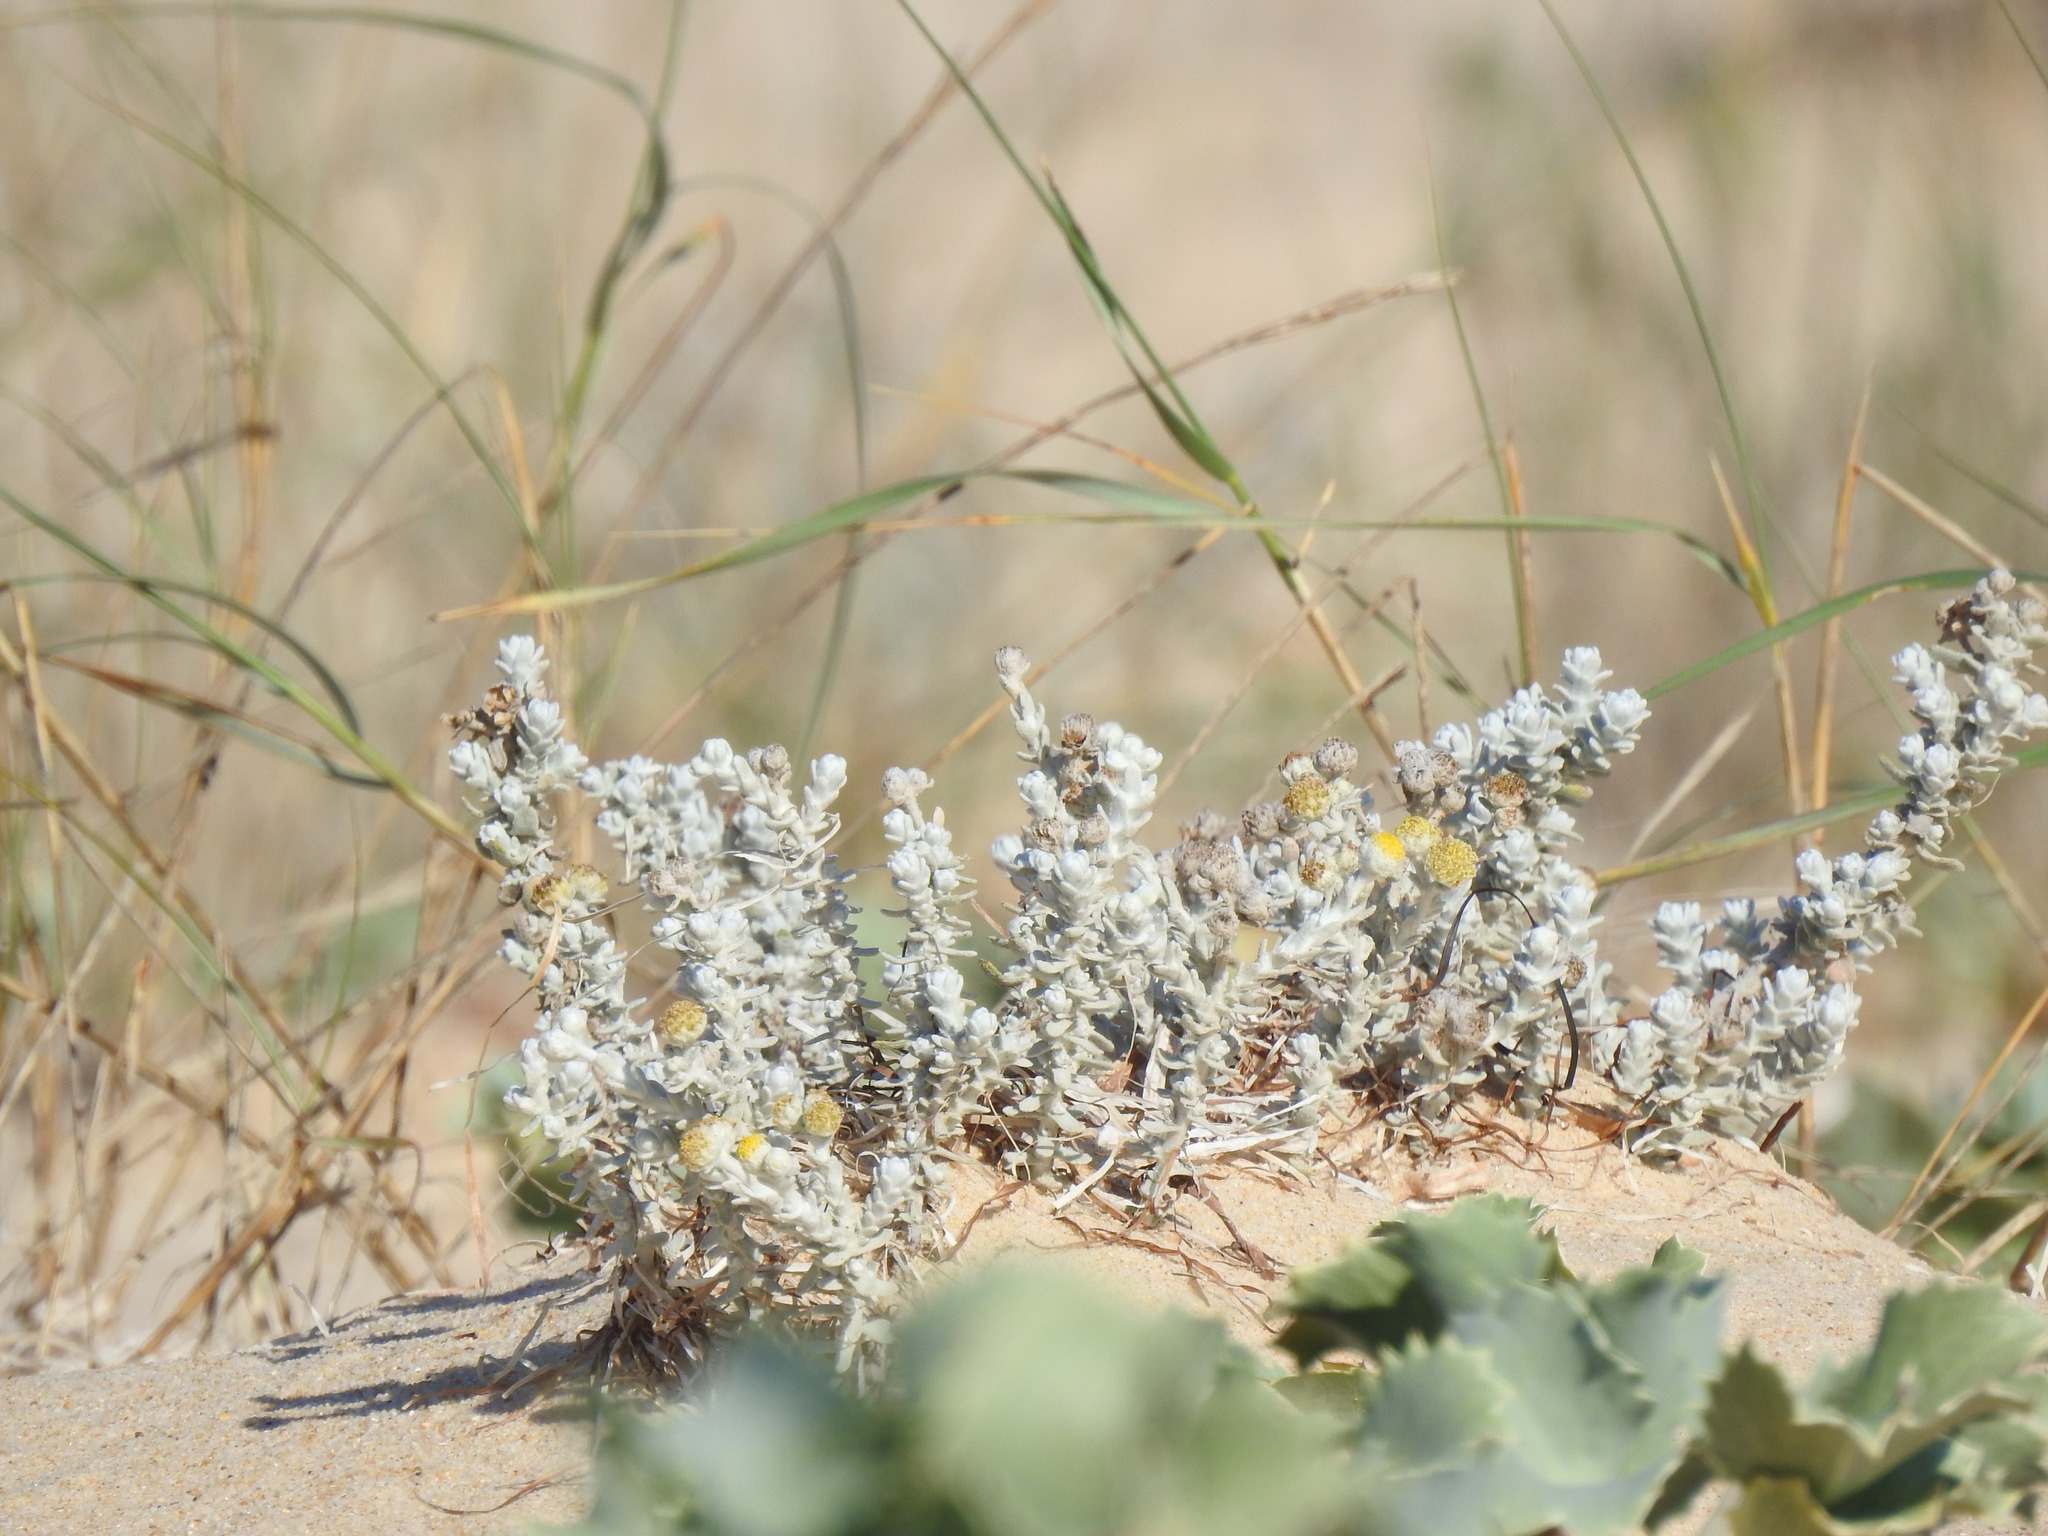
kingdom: Plantae
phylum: Tracheophyta
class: Magnoliopsida
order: Asterales
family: Asteraceae
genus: Achillea
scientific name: Achillea maritima
